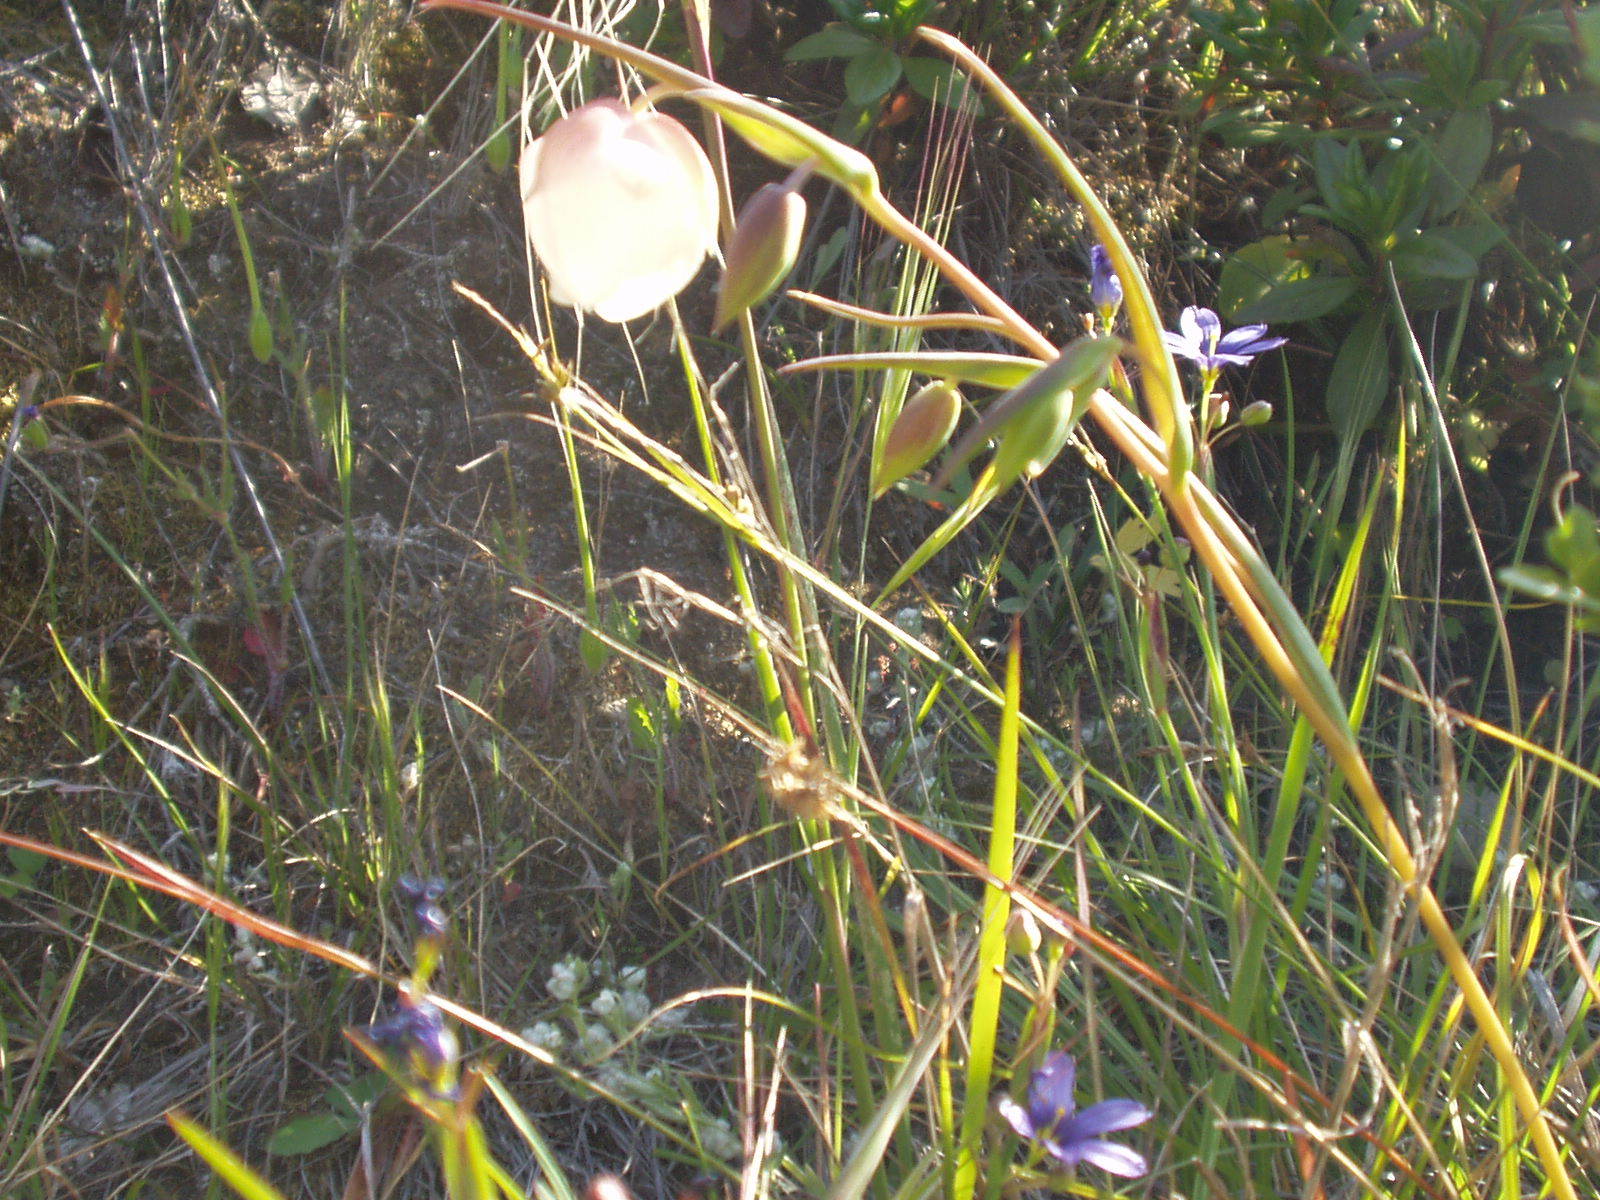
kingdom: Plantae
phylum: Tracheophyta
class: Liliopsida
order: Liliales
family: Liliaceae
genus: Calochortus
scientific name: Calochortus albus
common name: Fairy-lantern
